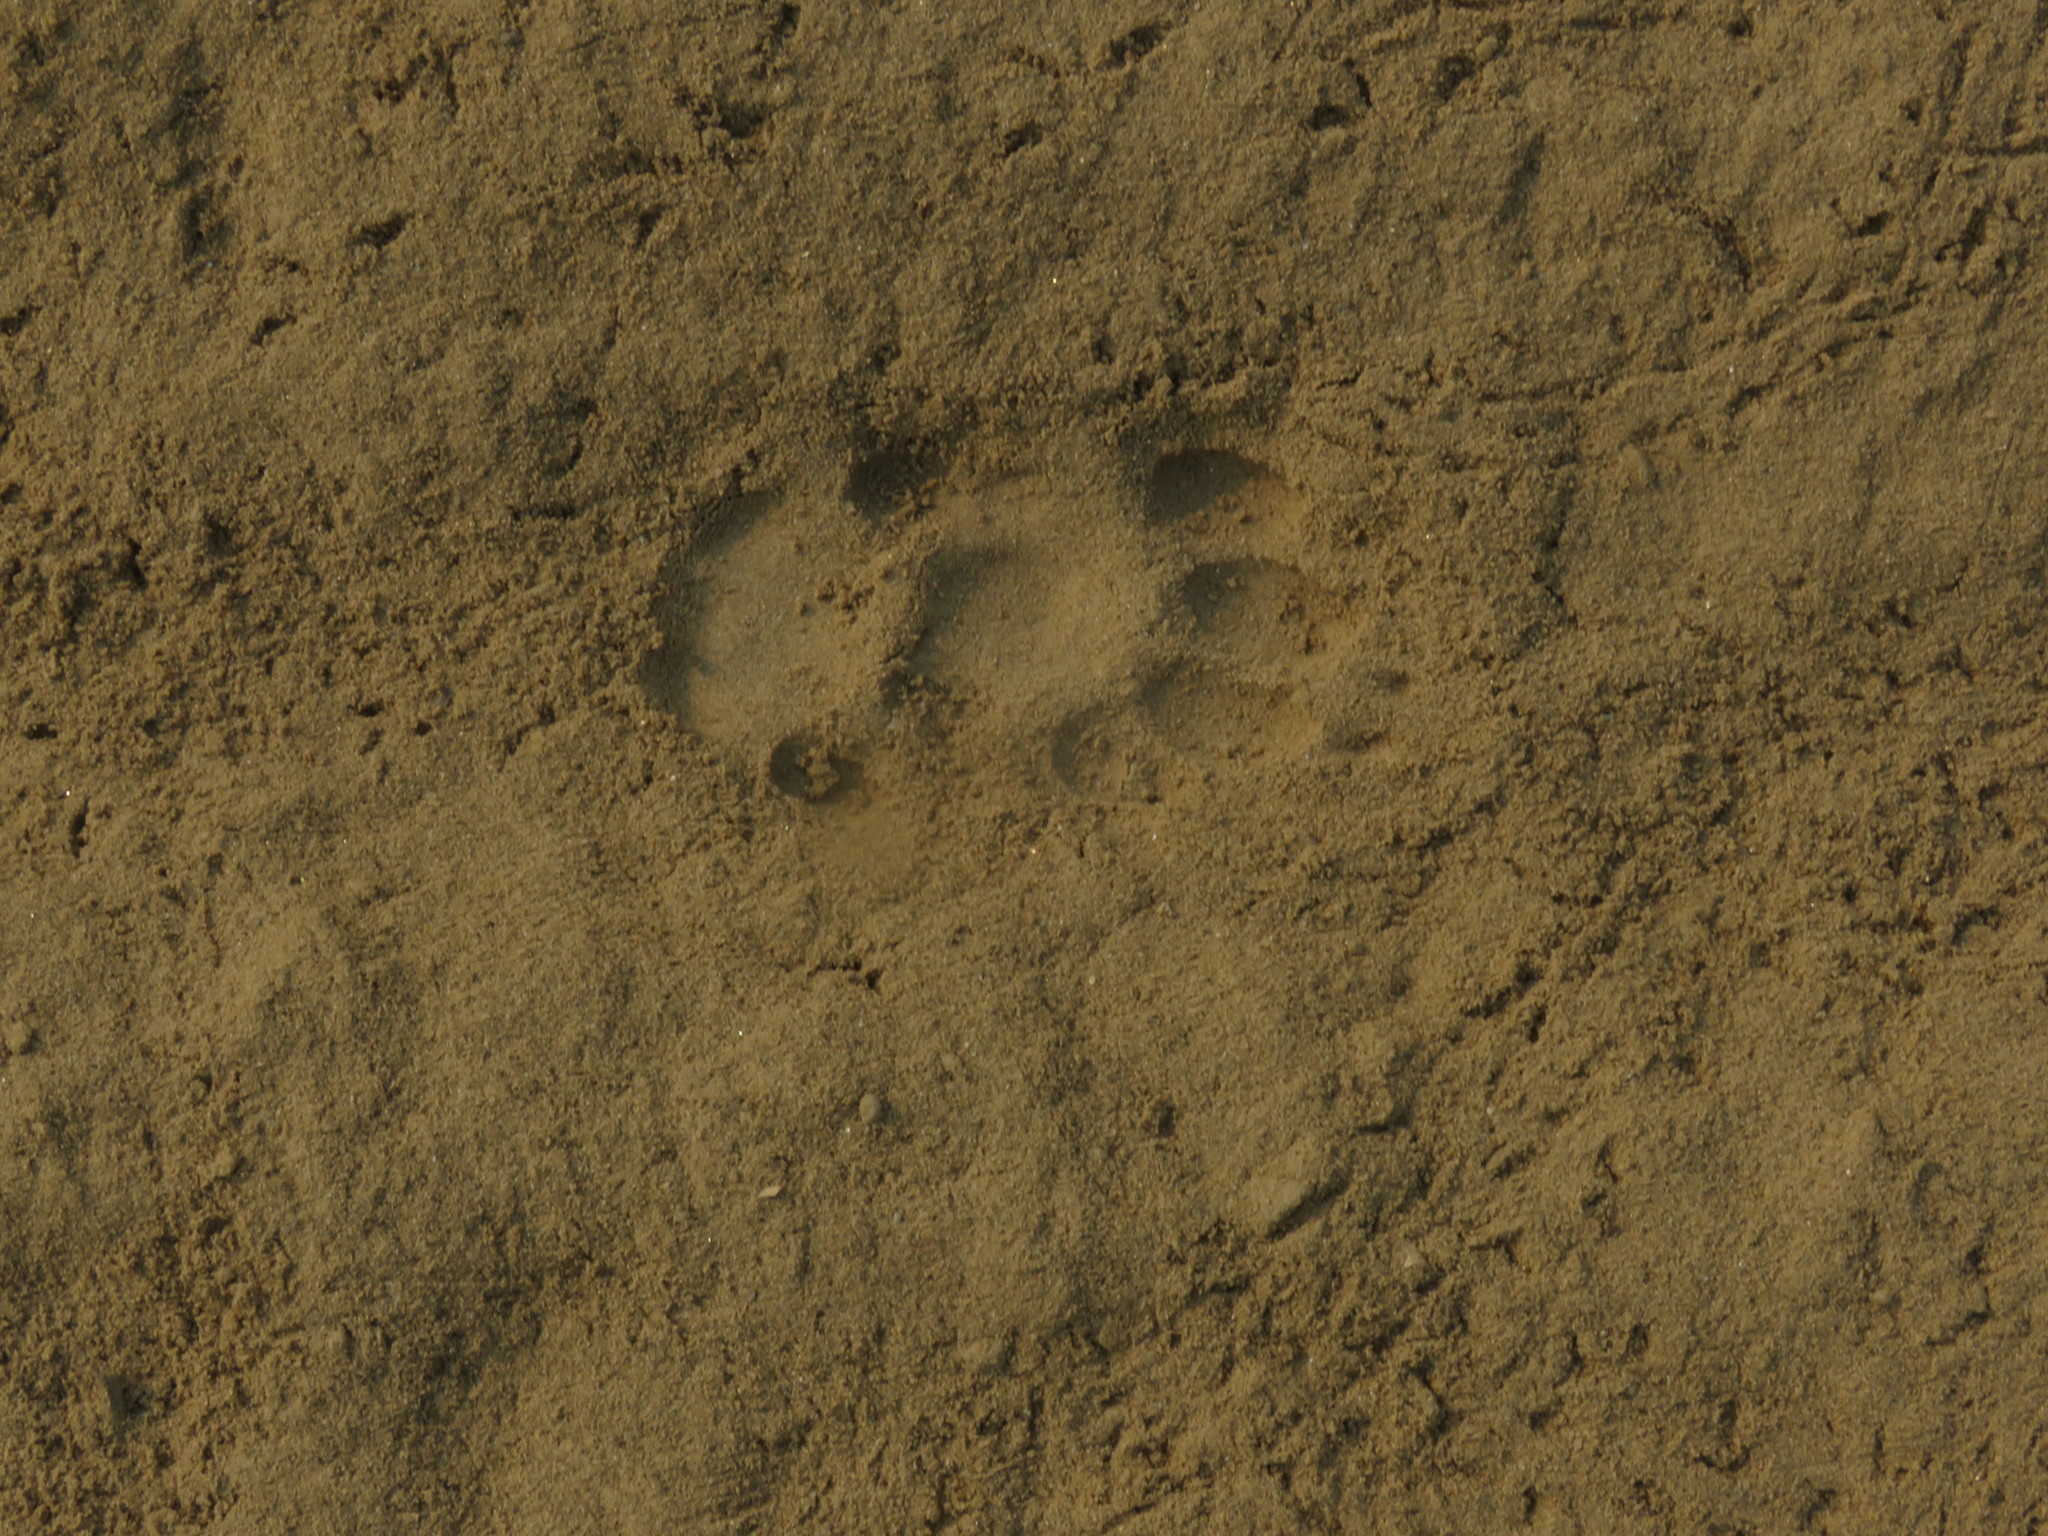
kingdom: Animalia
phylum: Chordata
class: Mammalia
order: Carnivora
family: Felidae
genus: Felis
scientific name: Felis catus
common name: Domestic cat
